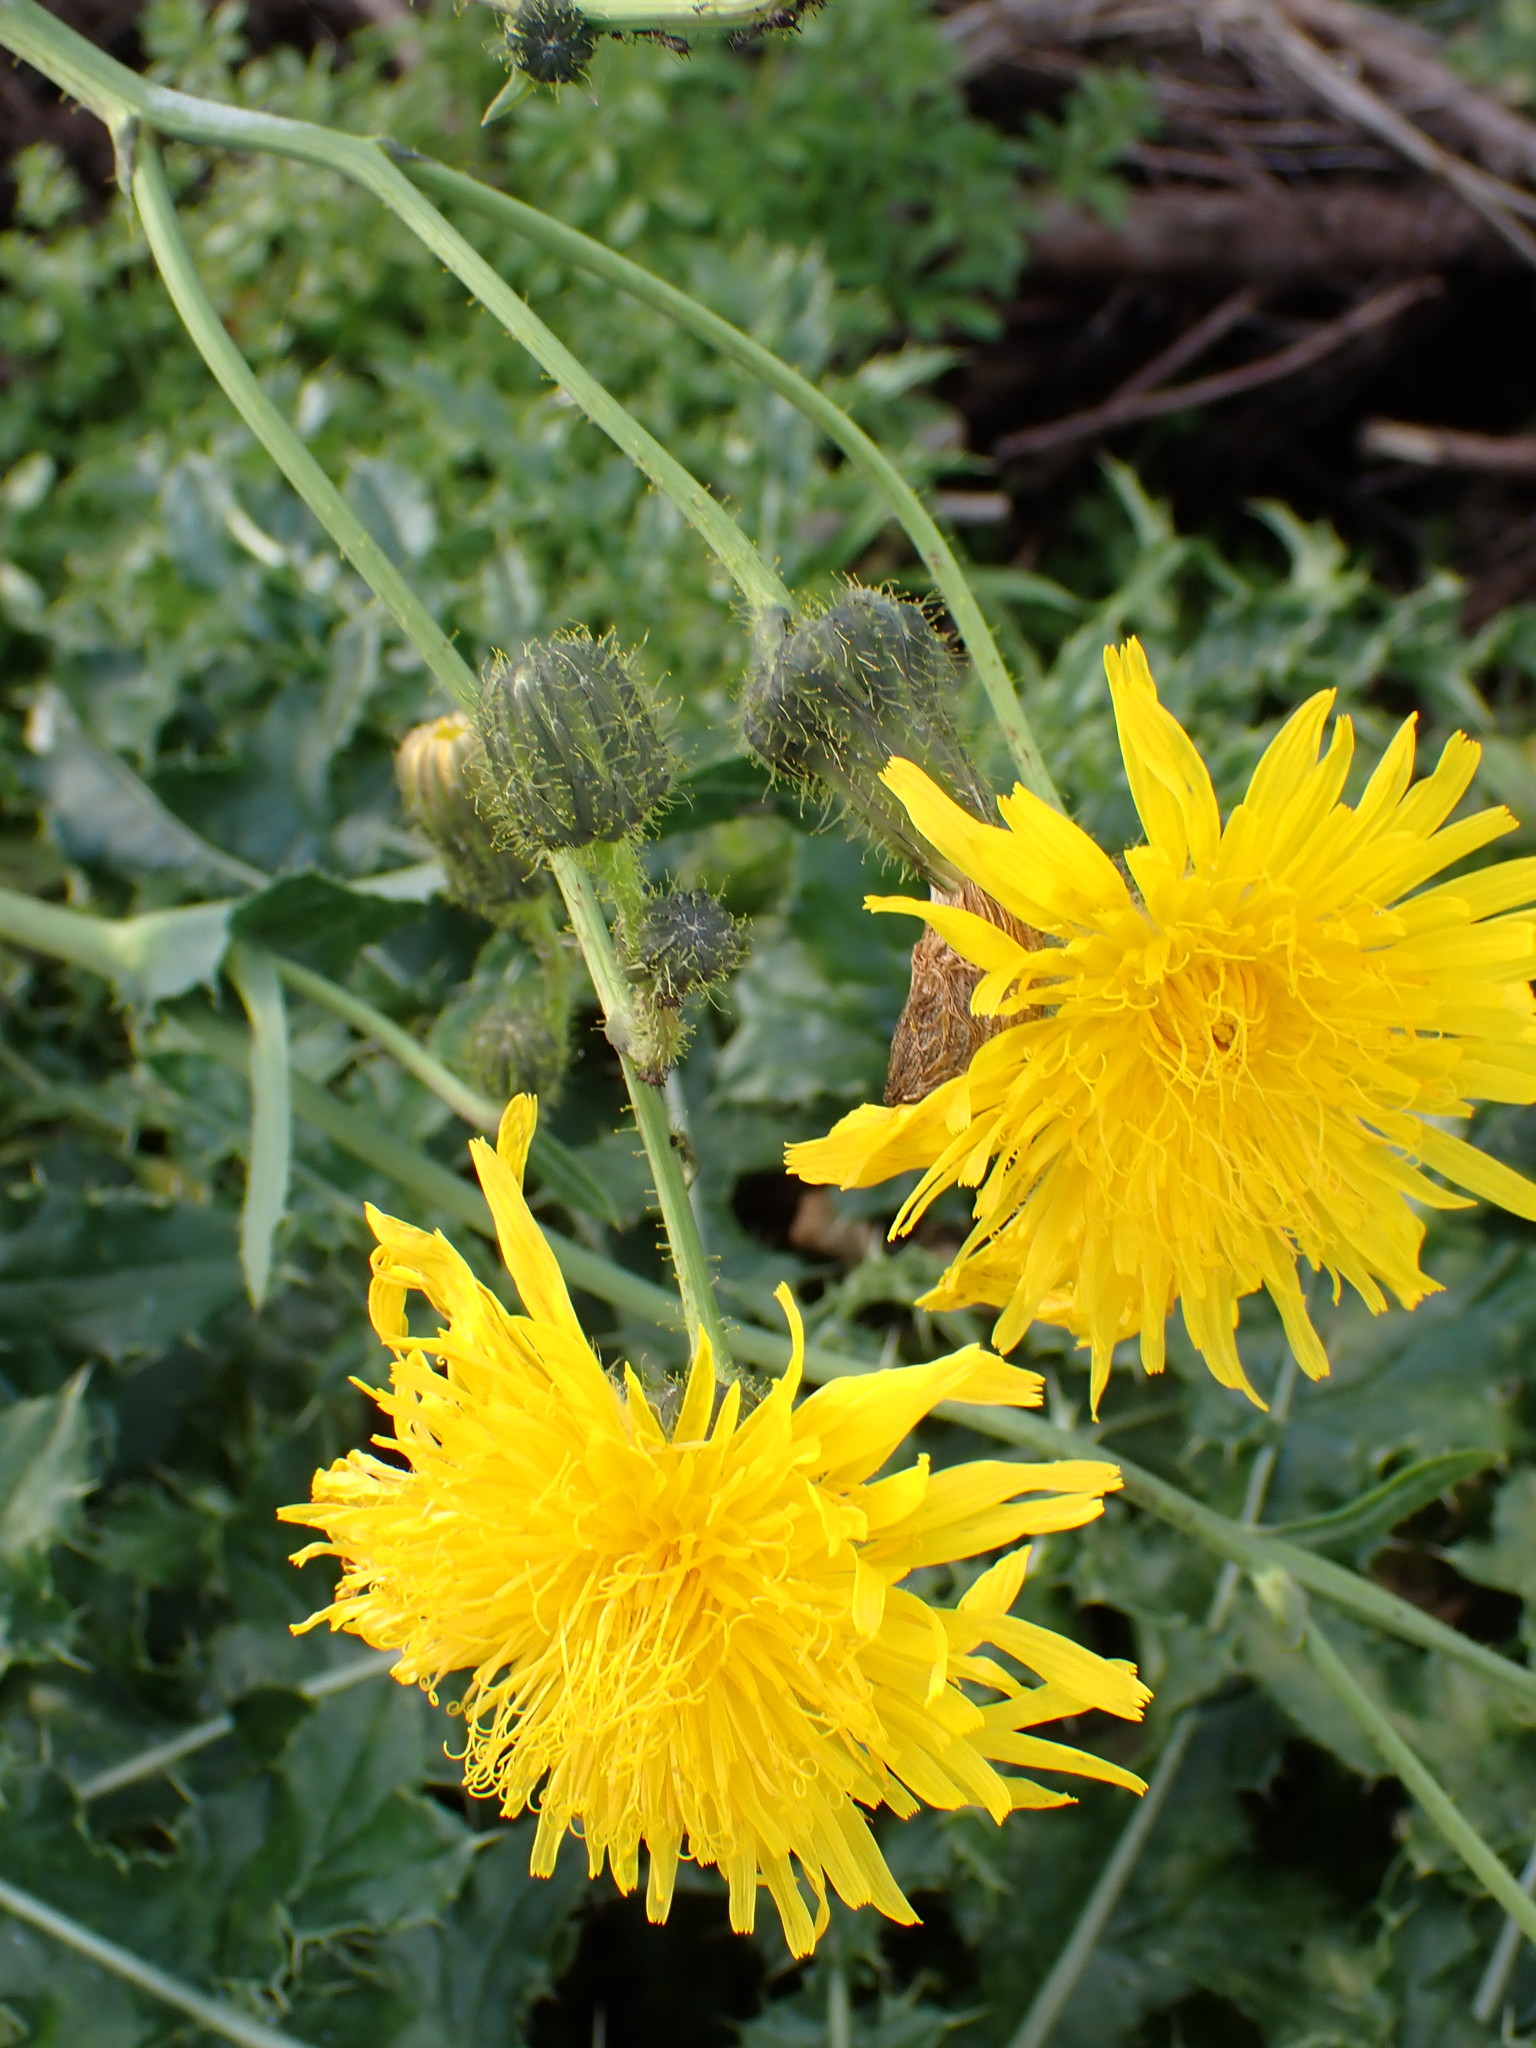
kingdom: Plantae
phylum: Tracheophyta
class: Magnoliopsida
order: Asterales
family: Asteraceae
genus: Sonchus
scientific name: Sonchus arvensis
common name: Perennial sow-thistle
